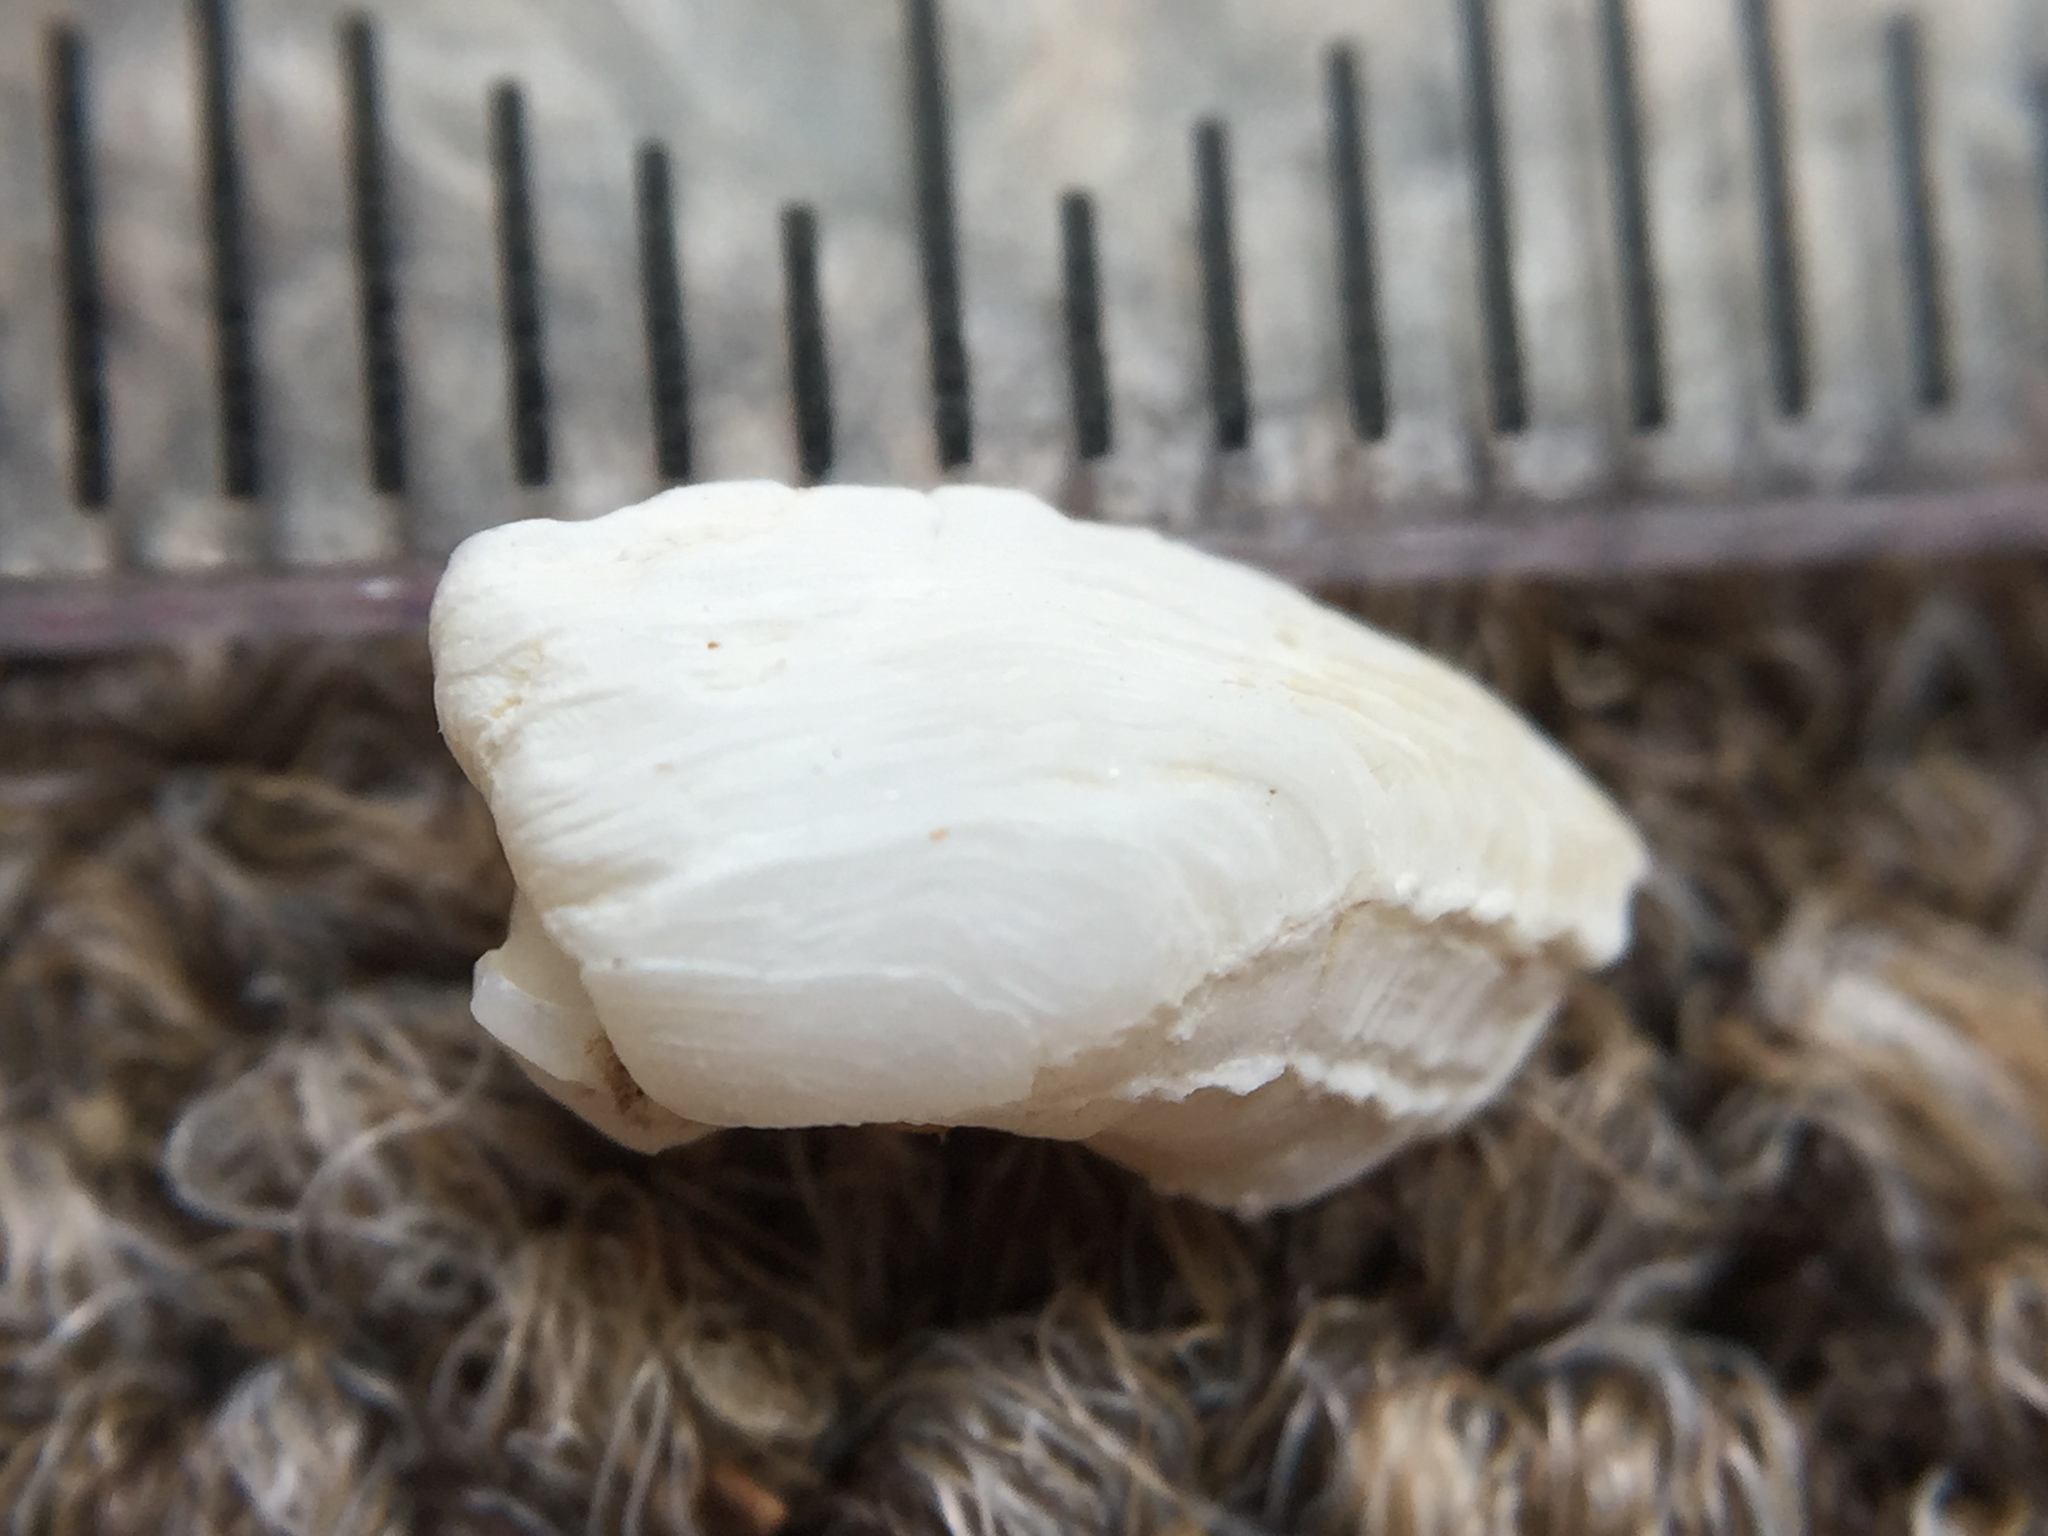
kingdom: Animalia
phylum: Mollusca
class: Bivalvia
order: Adapedonta
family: Hiatellidae
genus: Hiatella
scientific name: Hiatella arctica
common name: Arctic hiatella
